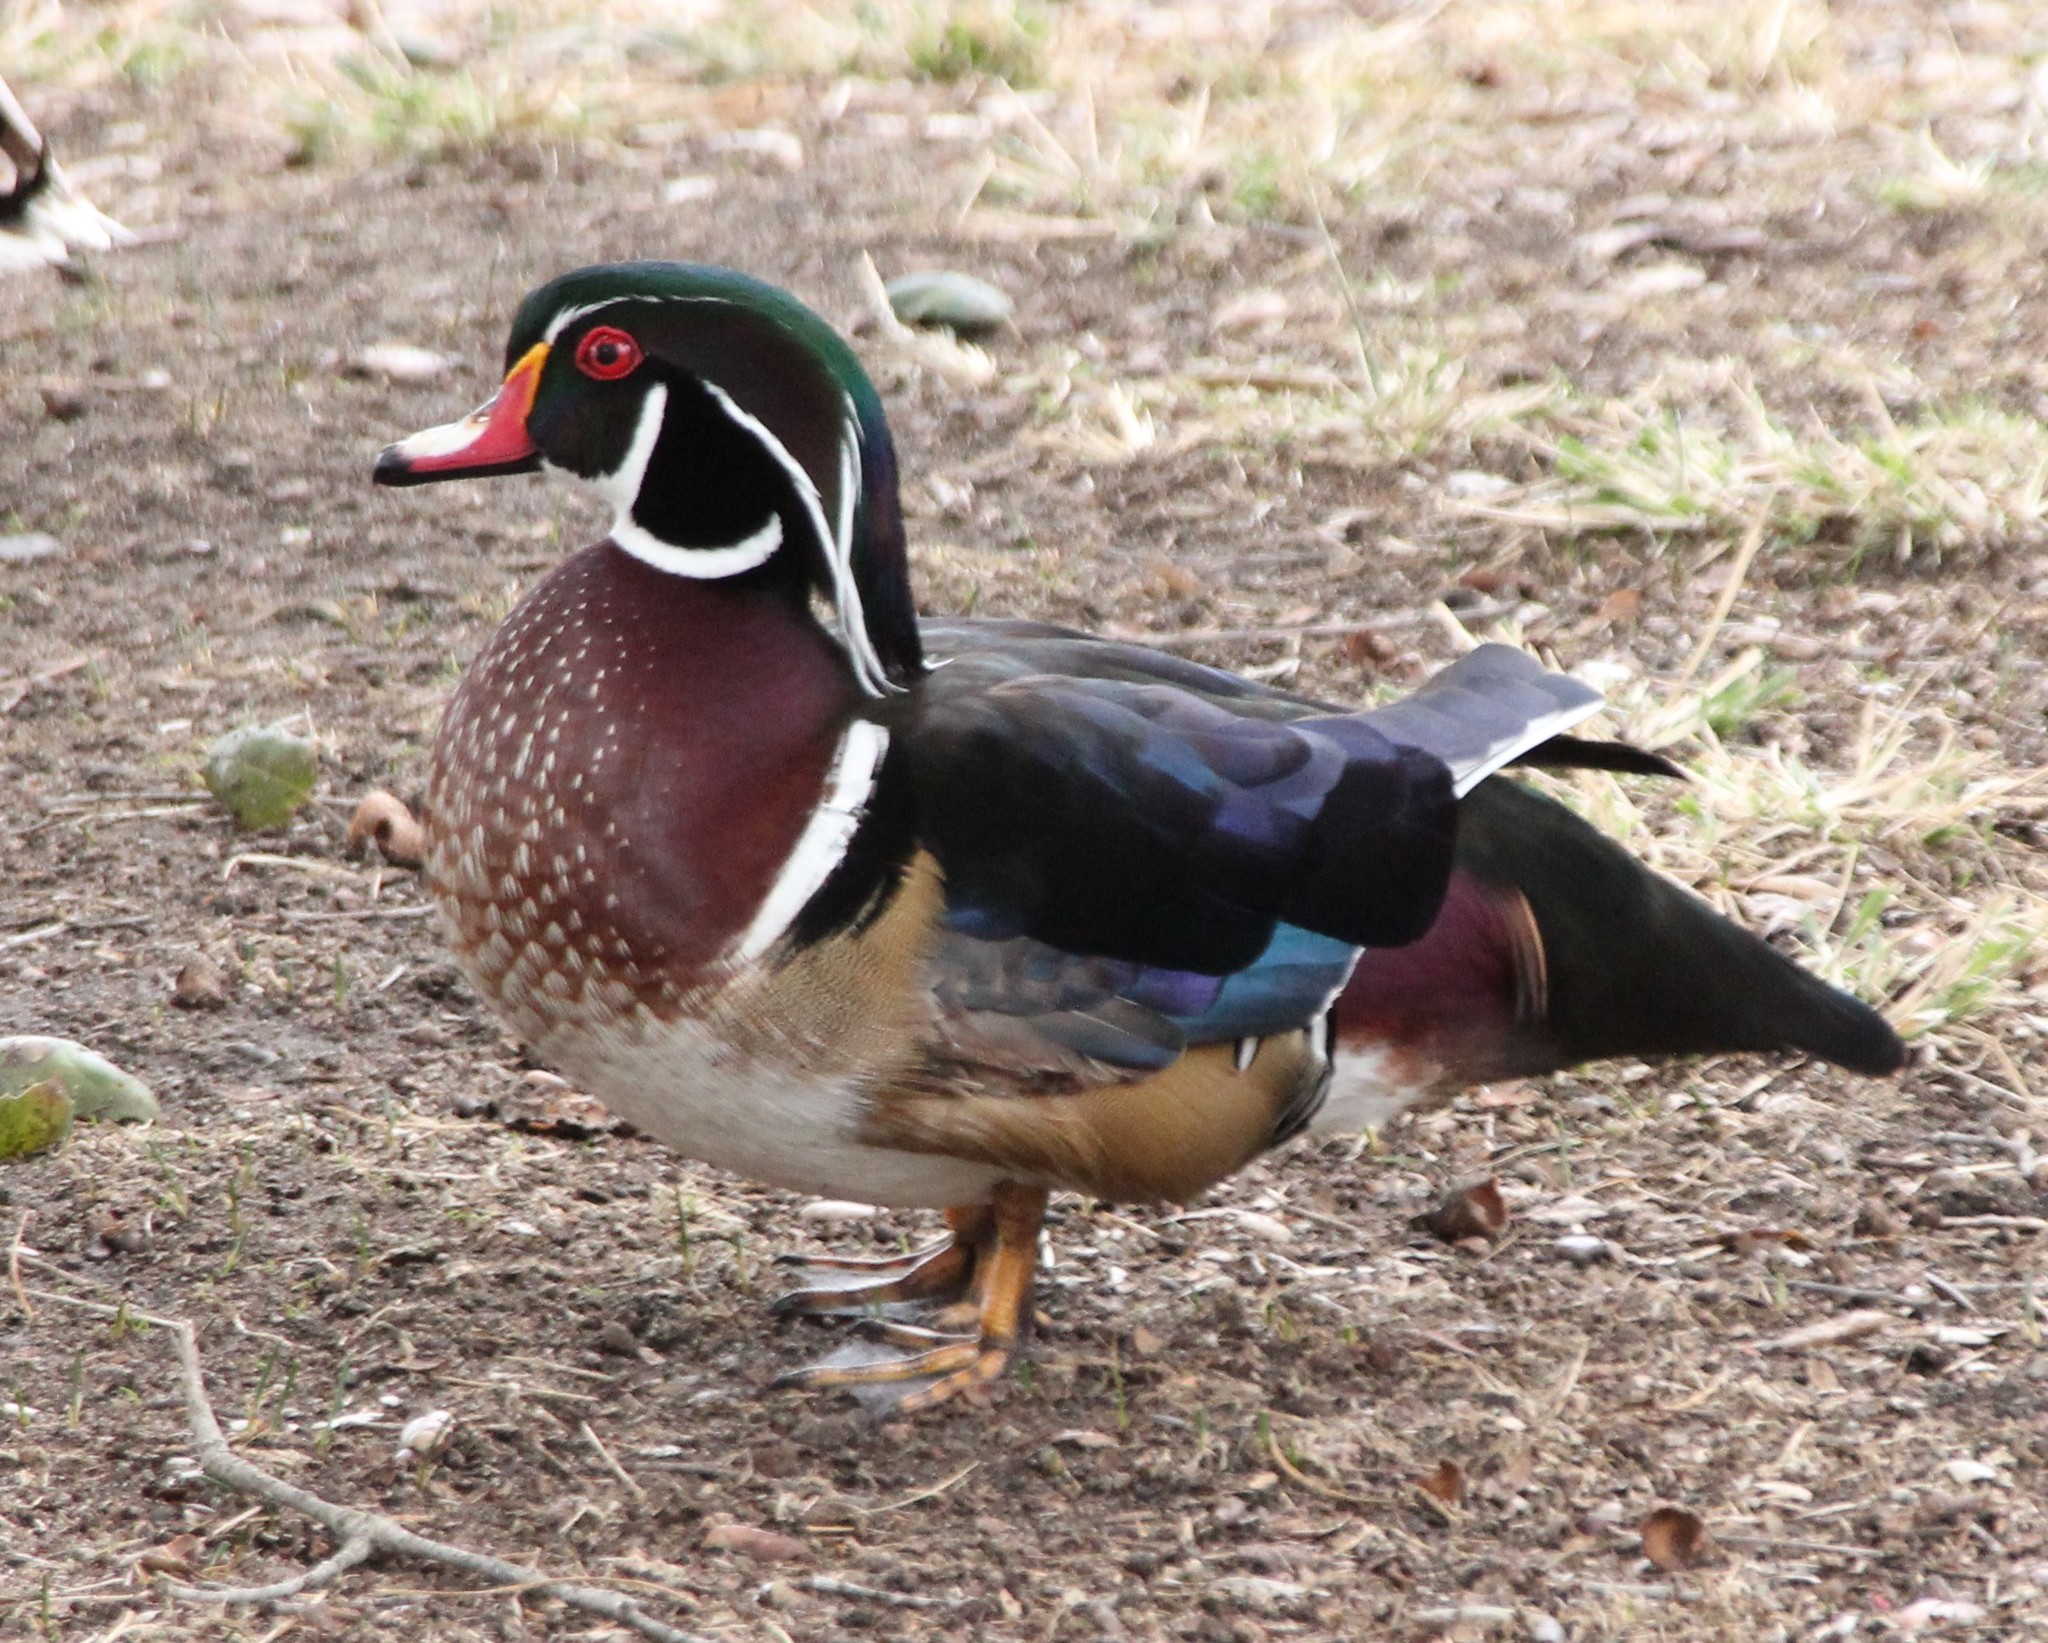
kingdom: Animalia
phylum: Chordata
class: Aves
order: Anseriformes
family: Anatidae
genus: Aix
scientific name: Aix sponsa
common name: Wood duck
